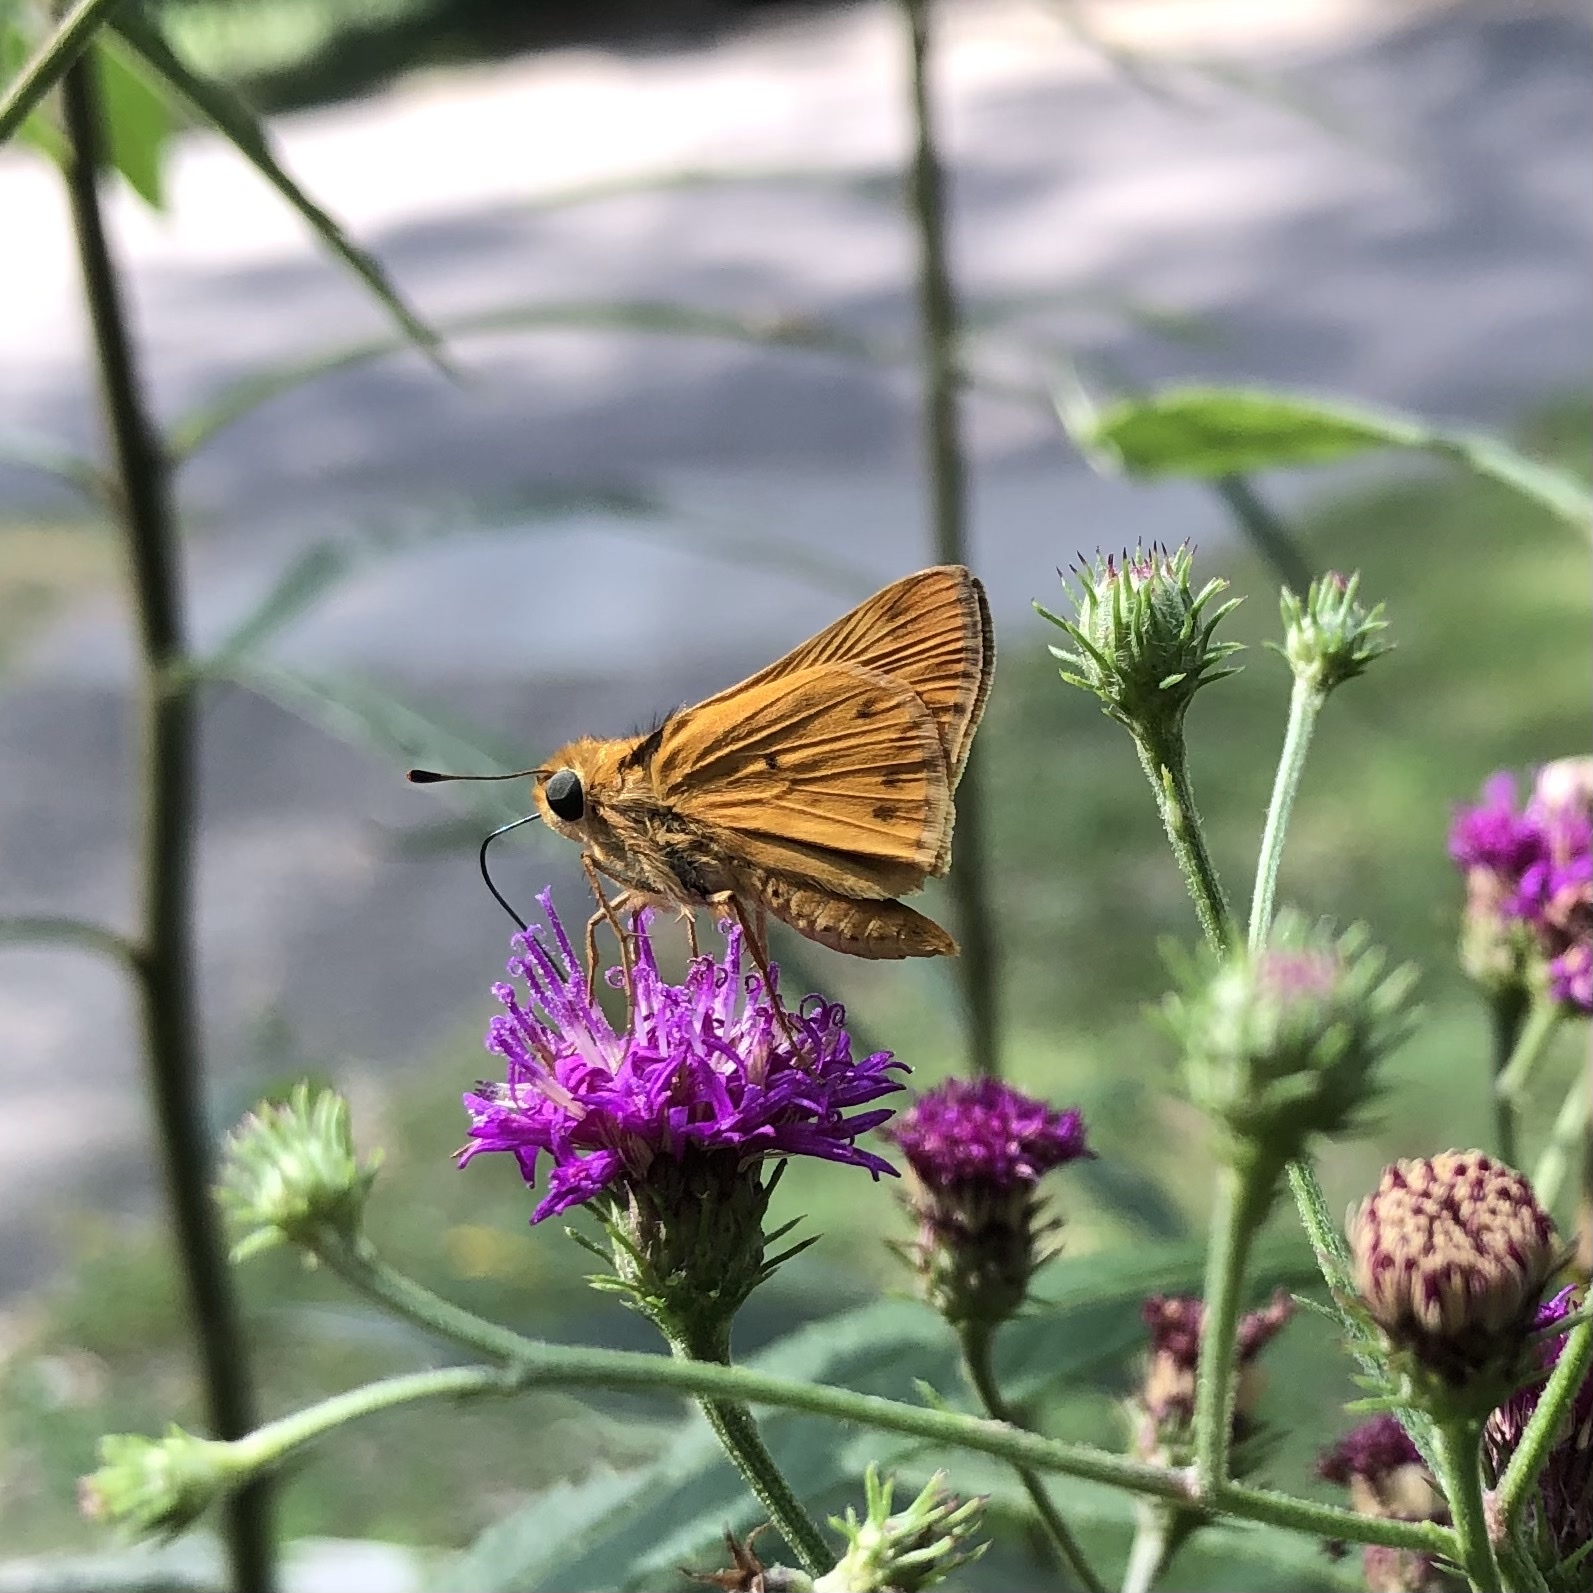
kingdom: Animalia
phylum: Arthropoda
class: Insecta
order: Lepidoptera
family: Hesperiidae
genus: Hylephila
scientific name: Hylephila phyleus
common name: Fiery skipper
